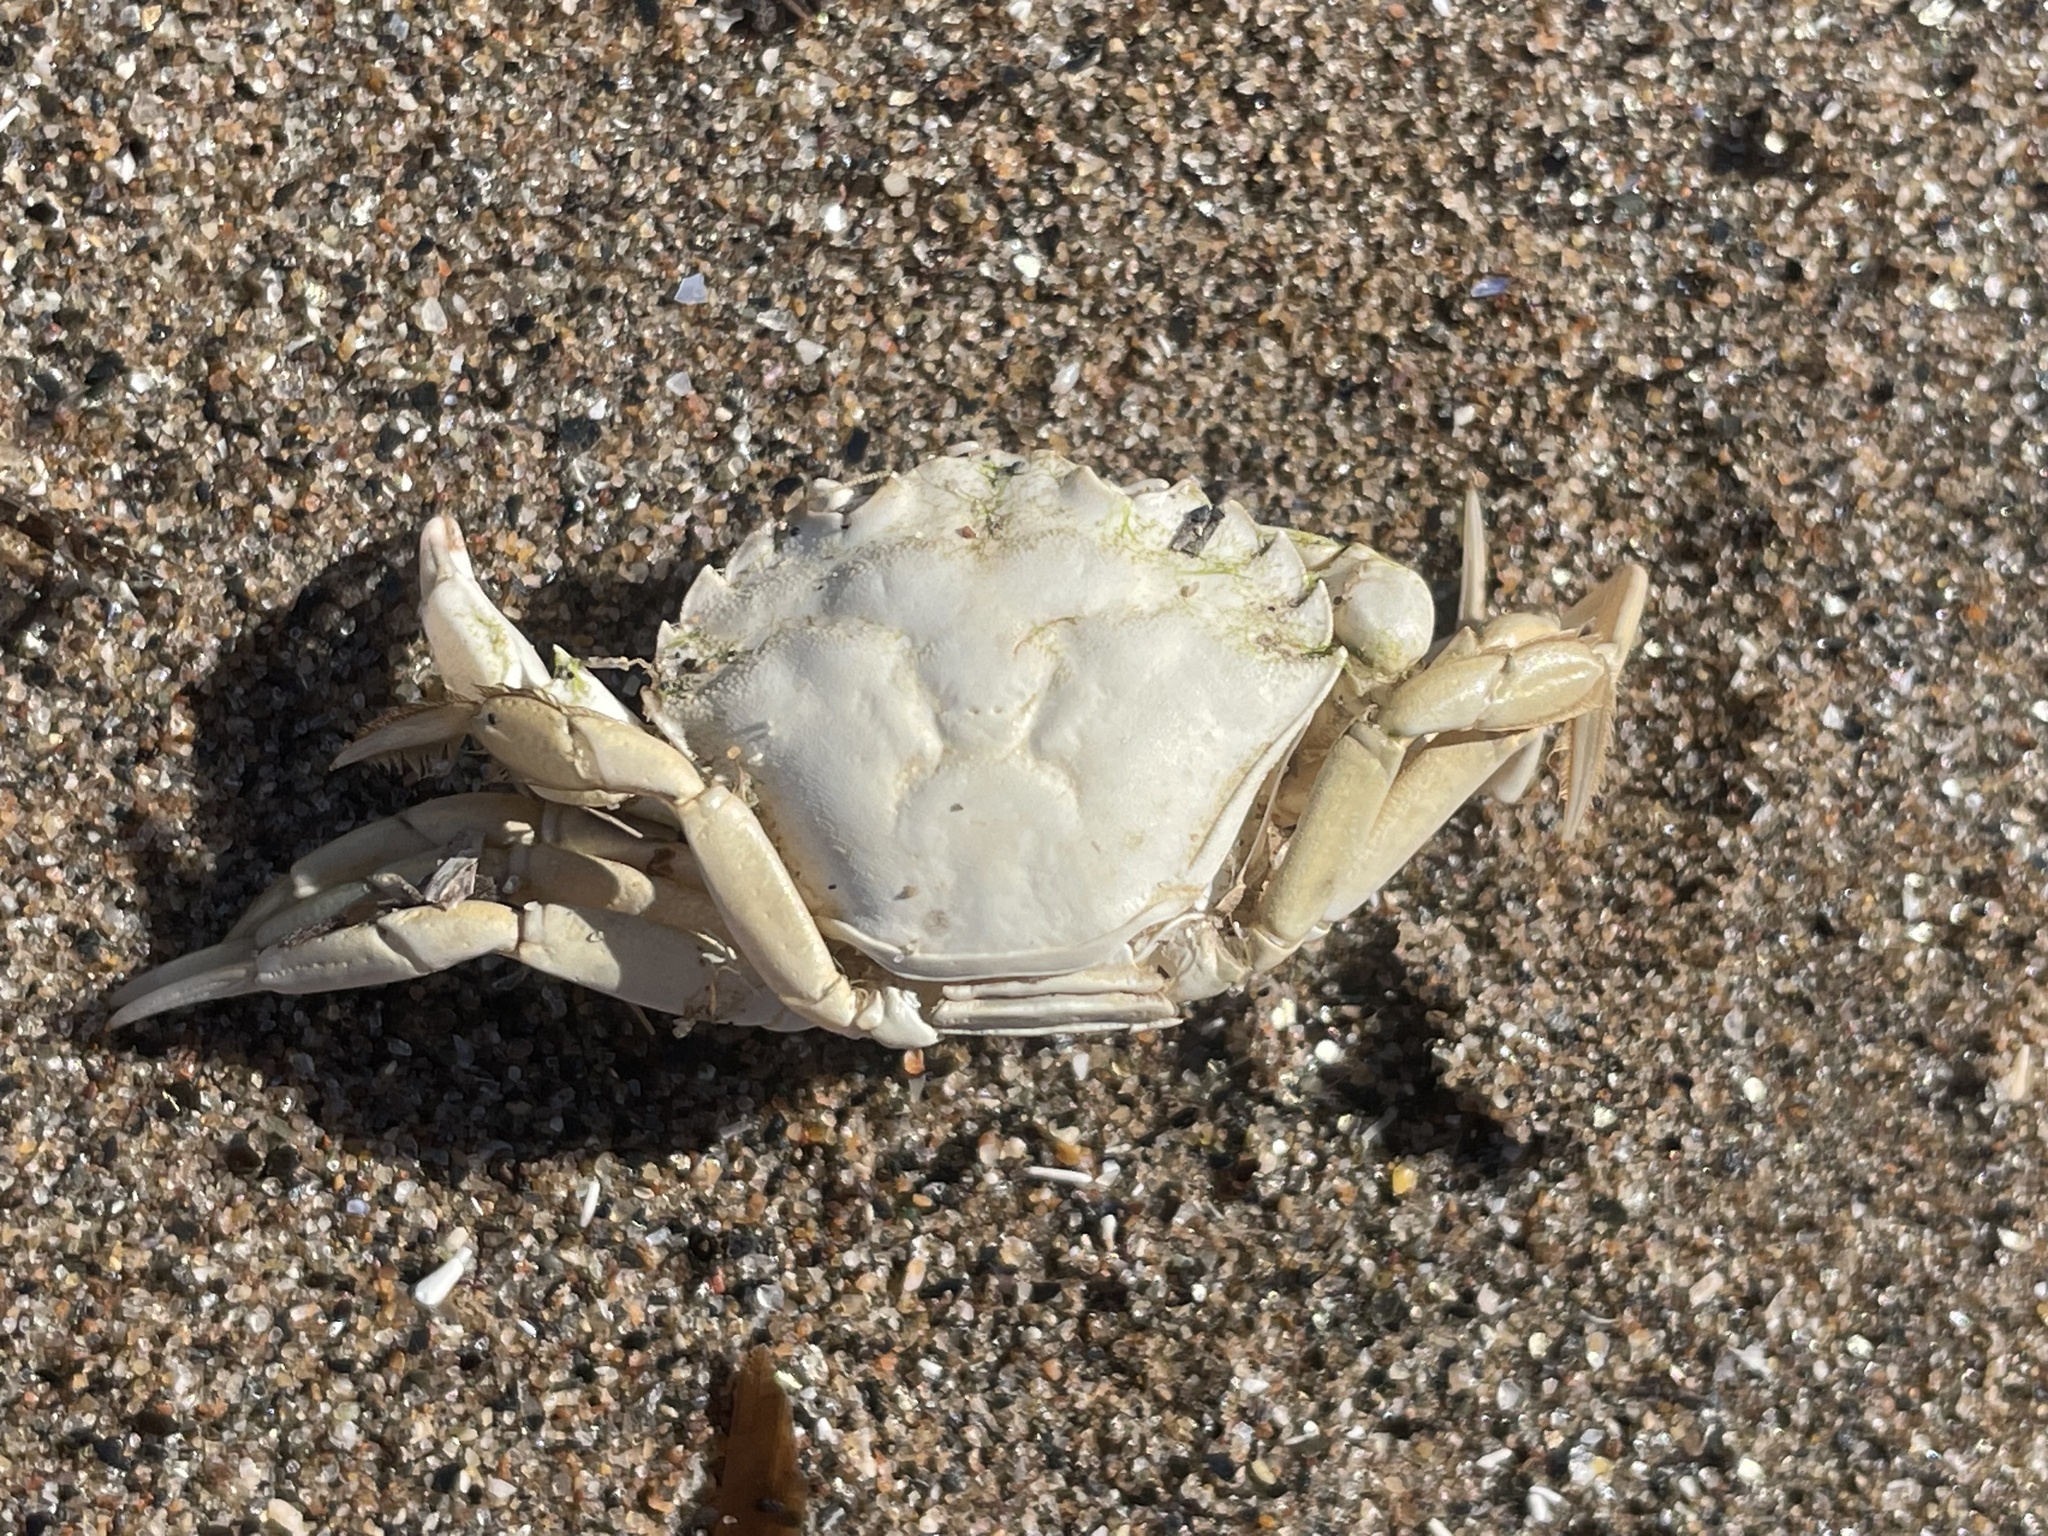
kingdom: Animalia
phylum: Arthropoda
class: Malacostraca
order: Decapoda
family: Carcinidae
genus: Carcinus
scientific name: Carcinus maenas
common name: European green crab
